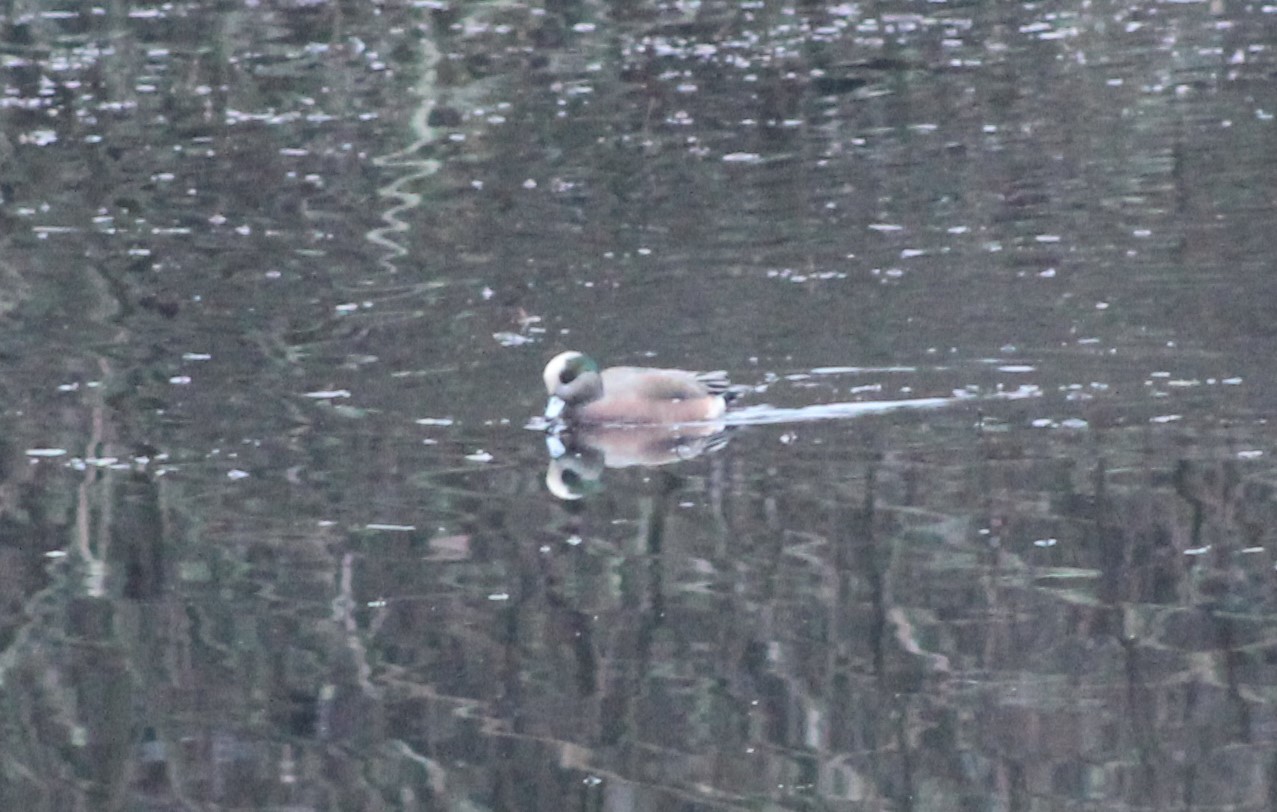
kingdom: Animalia
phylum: Chordata
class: Aves
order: Anseriformes
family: Anatidae
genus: Mareca
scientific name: Mareca americana
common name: American wigeon
